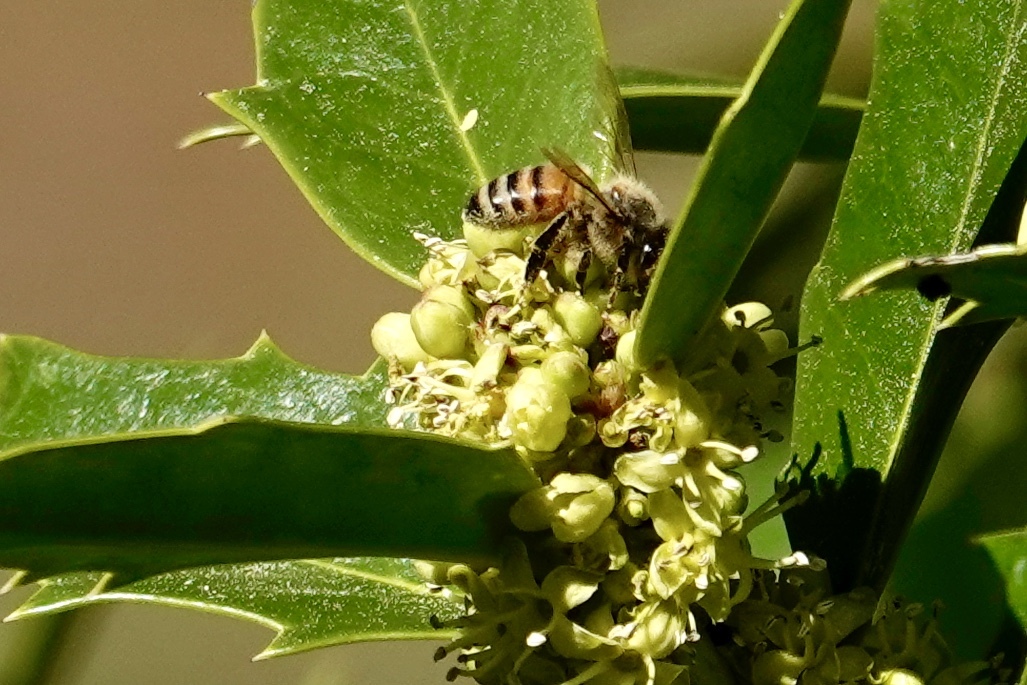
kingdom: Animalia
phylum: Arthropoda
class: Insecta
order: Hymenoptera
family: Apidae
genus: Apis
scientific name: Apis mellifera
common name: Honey bee
